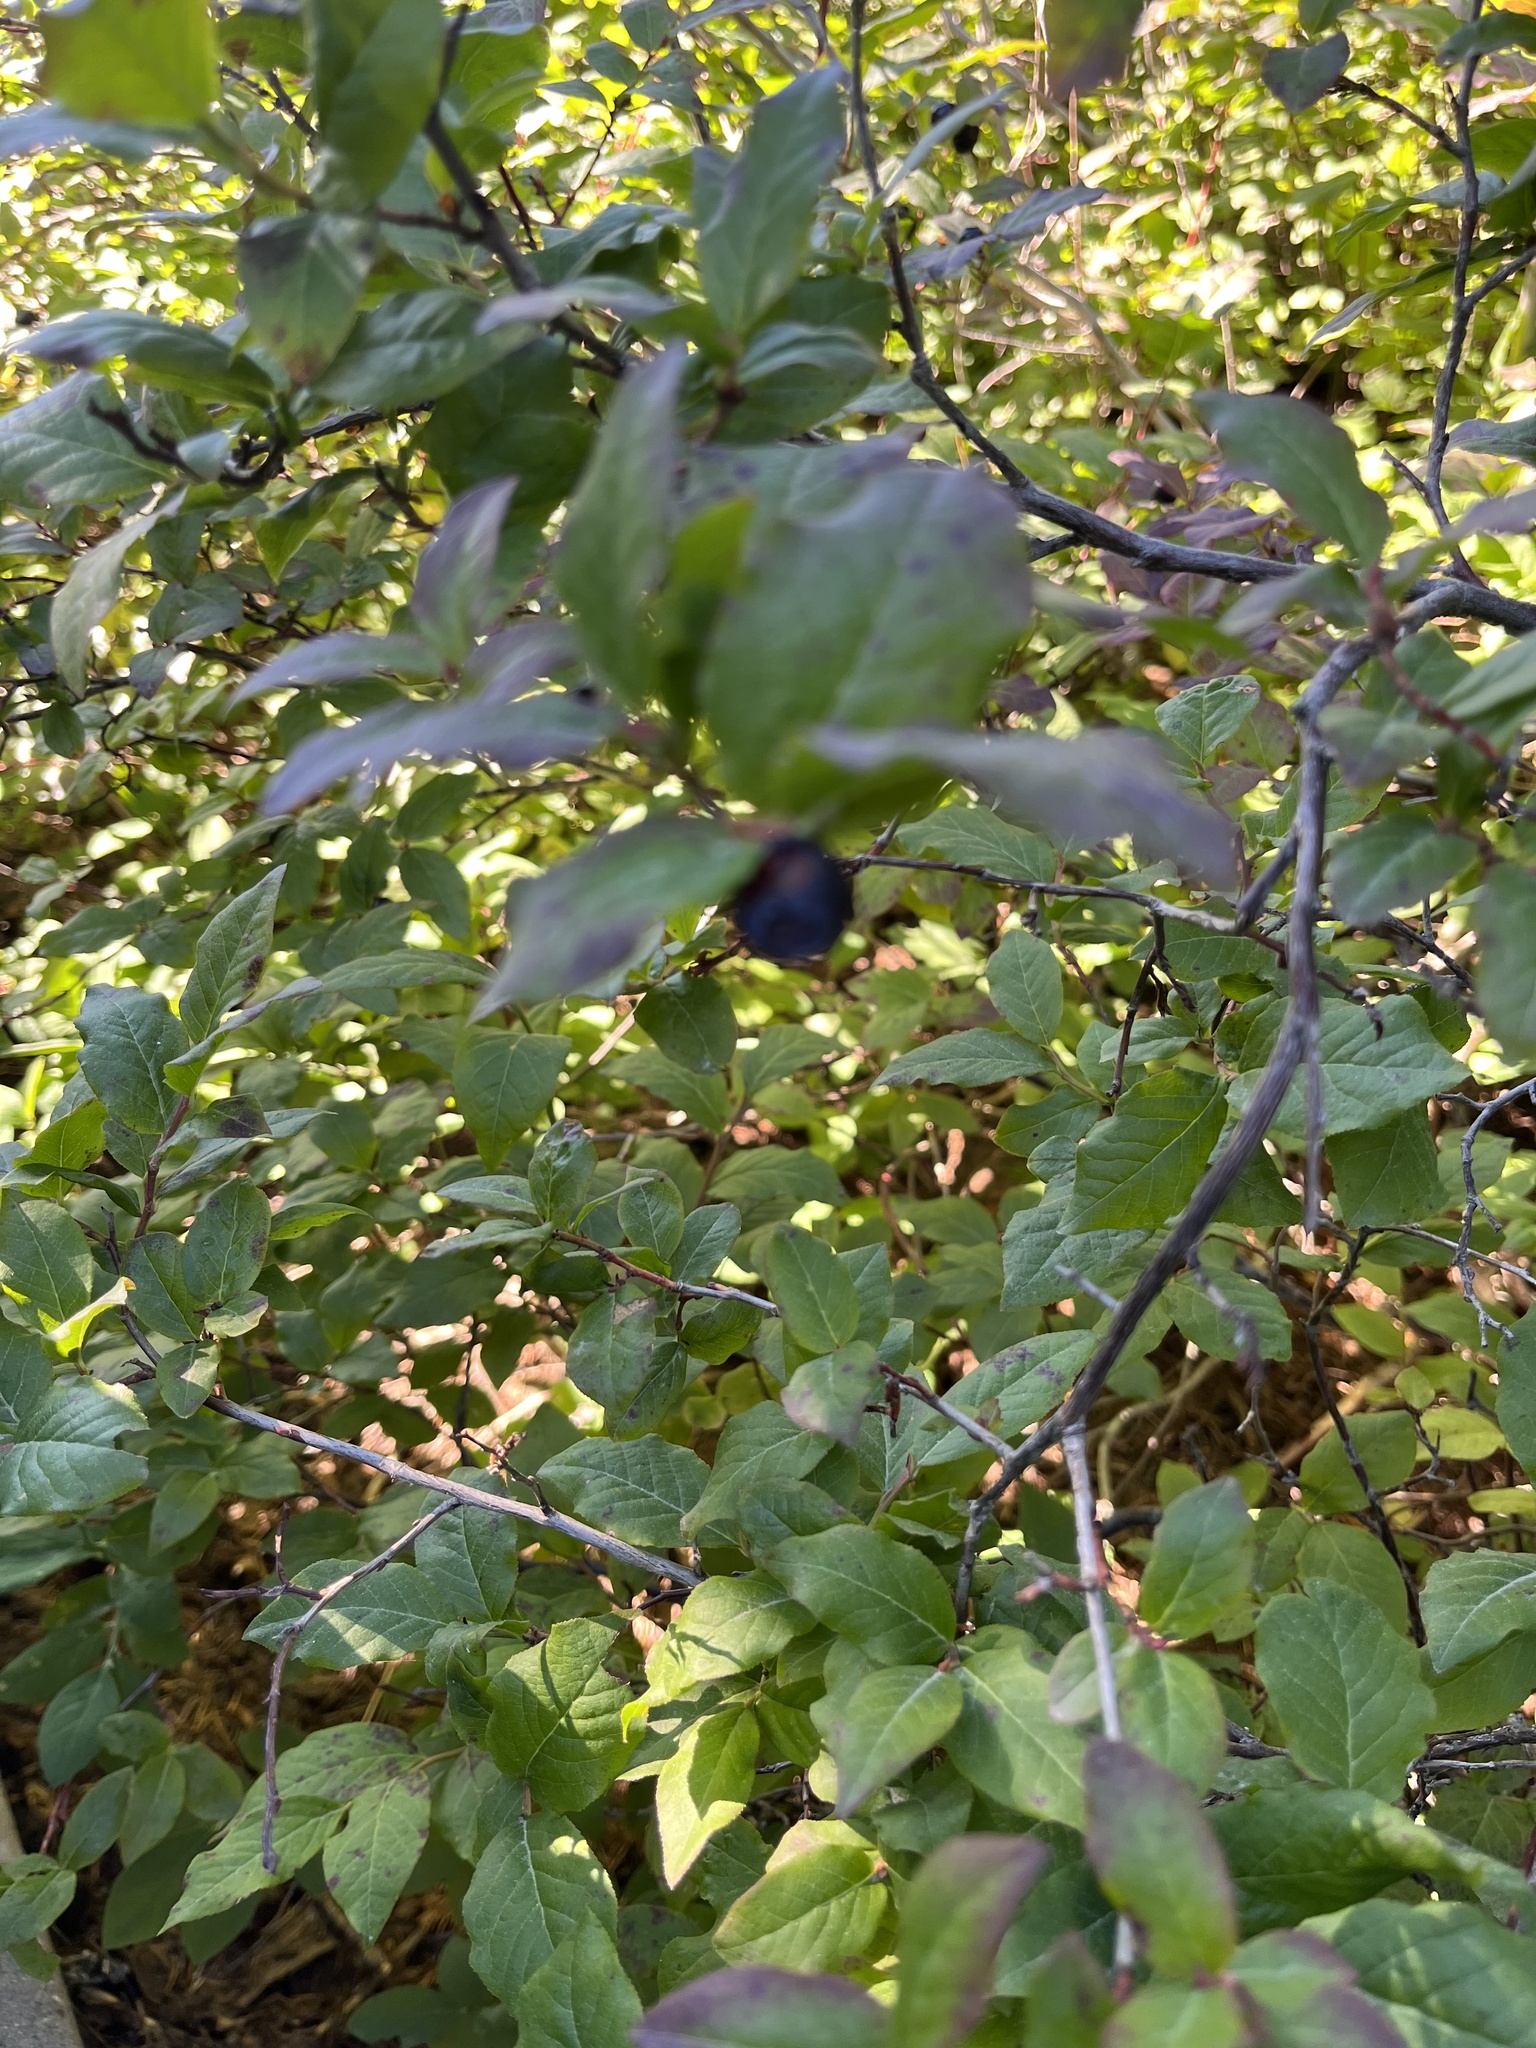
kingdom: Plantae
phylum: Tracheophyta
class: Magnoliopsida
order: Ericales
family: Ericaceae
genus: Vaccinium
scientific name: Vaccinium membranaceum
